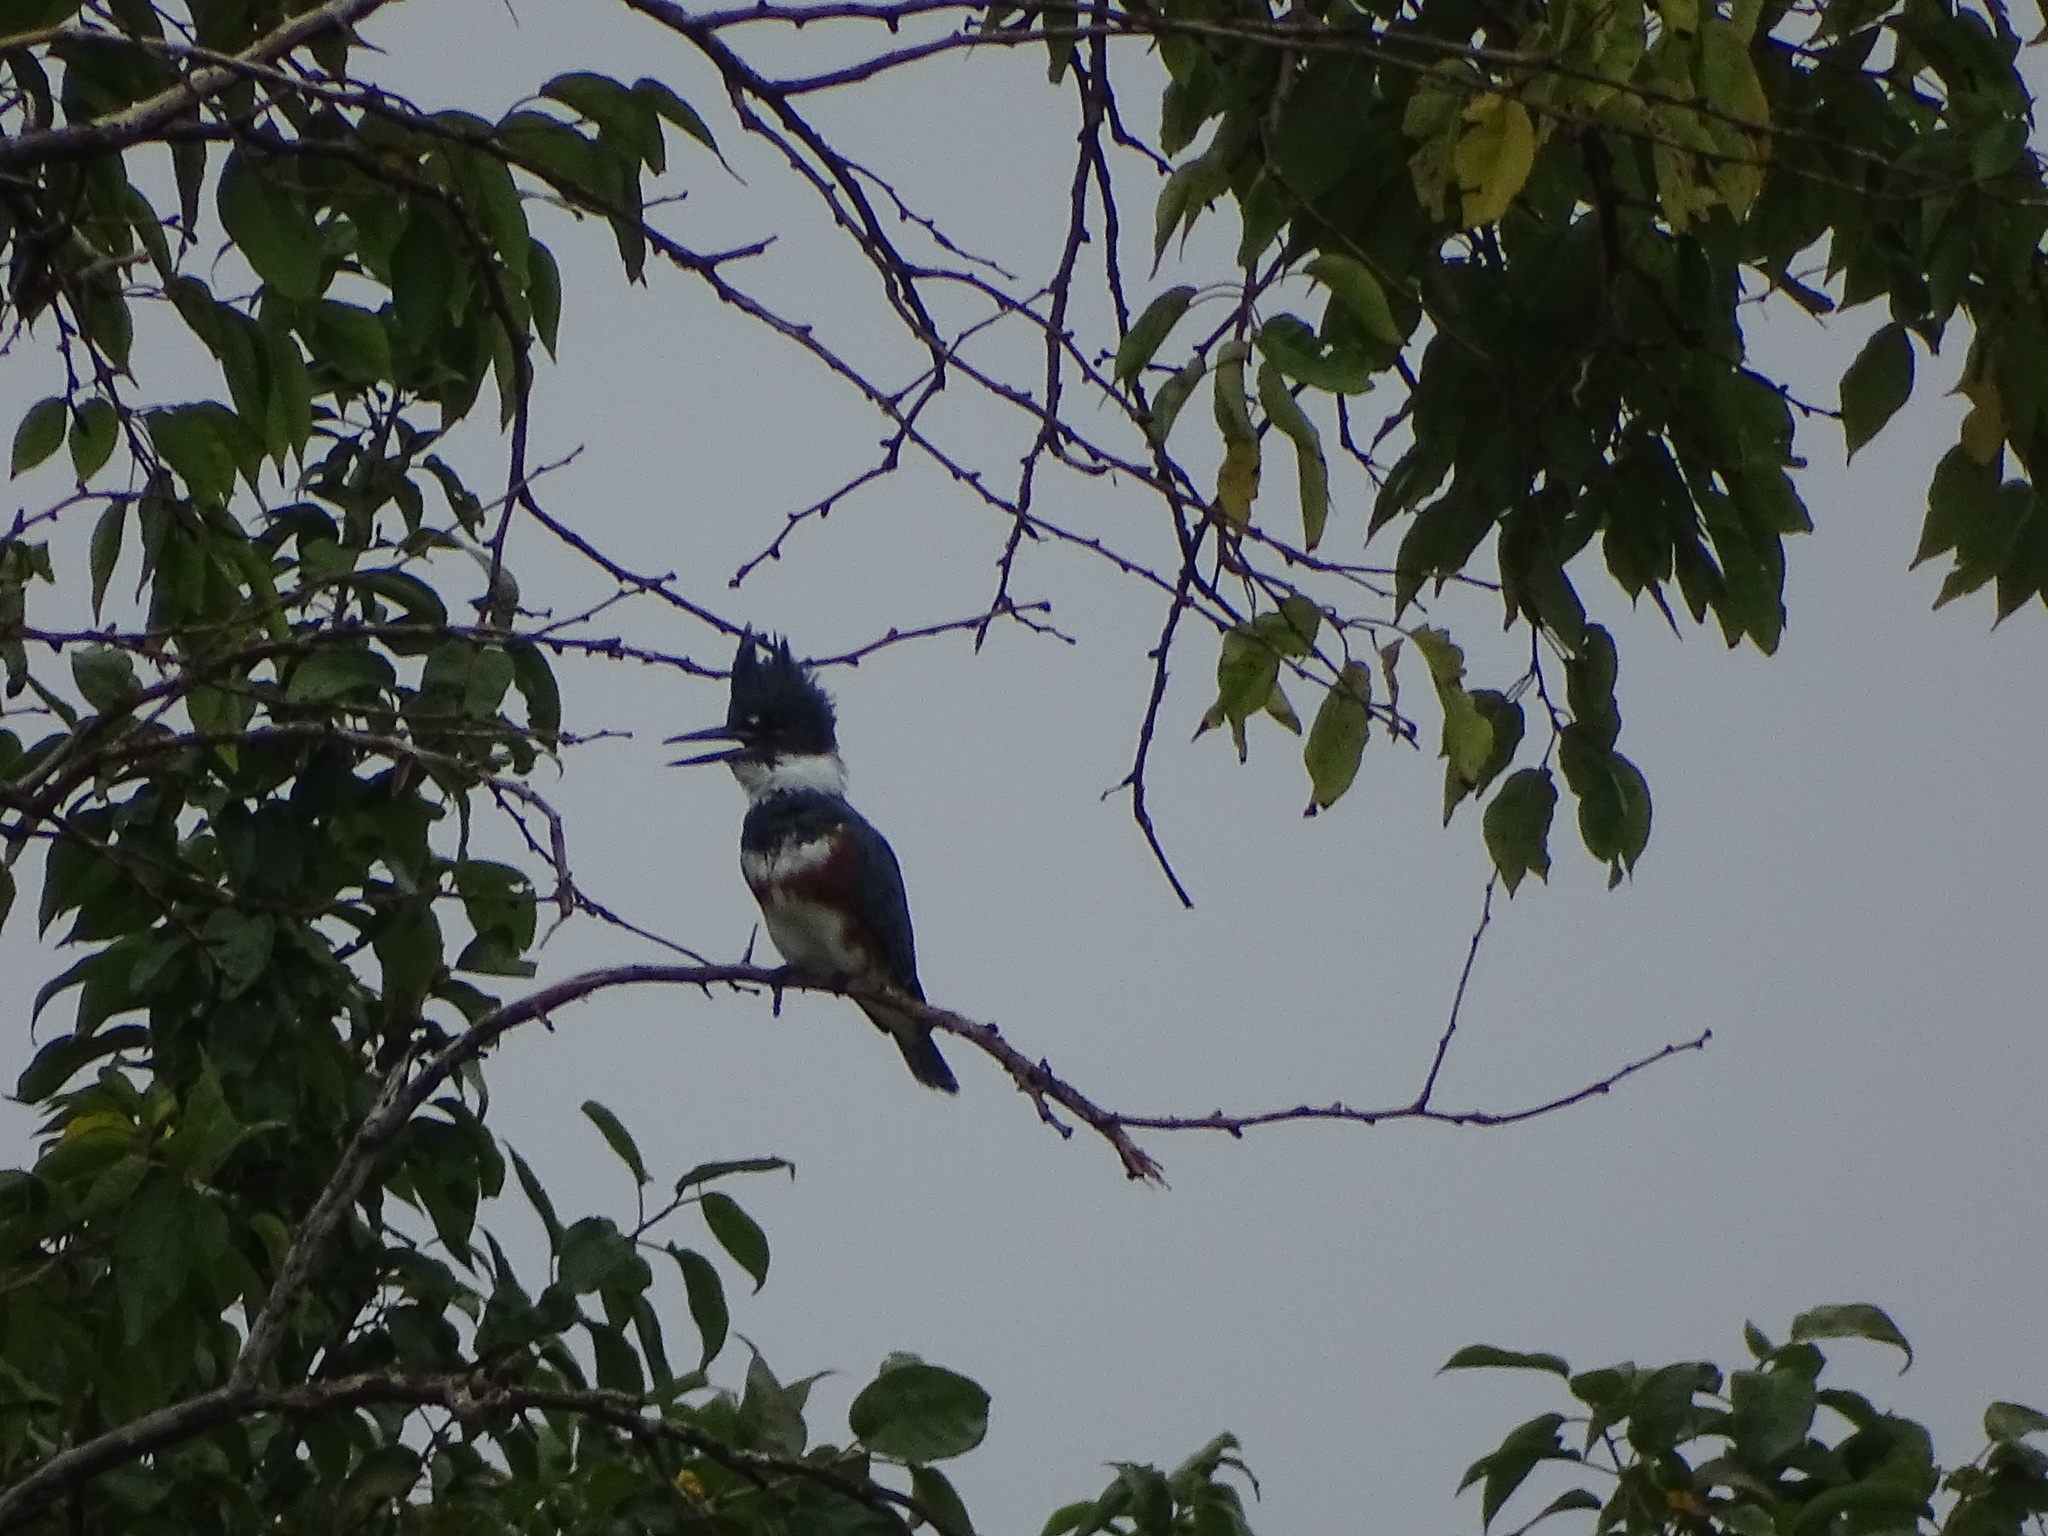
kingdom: Animalia
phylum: Chordata
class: Aves
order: Coraciiformes
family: Alcedinidae
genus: Megaceryle
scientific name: Megaceryle alcyon
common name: Belted kingfisher
